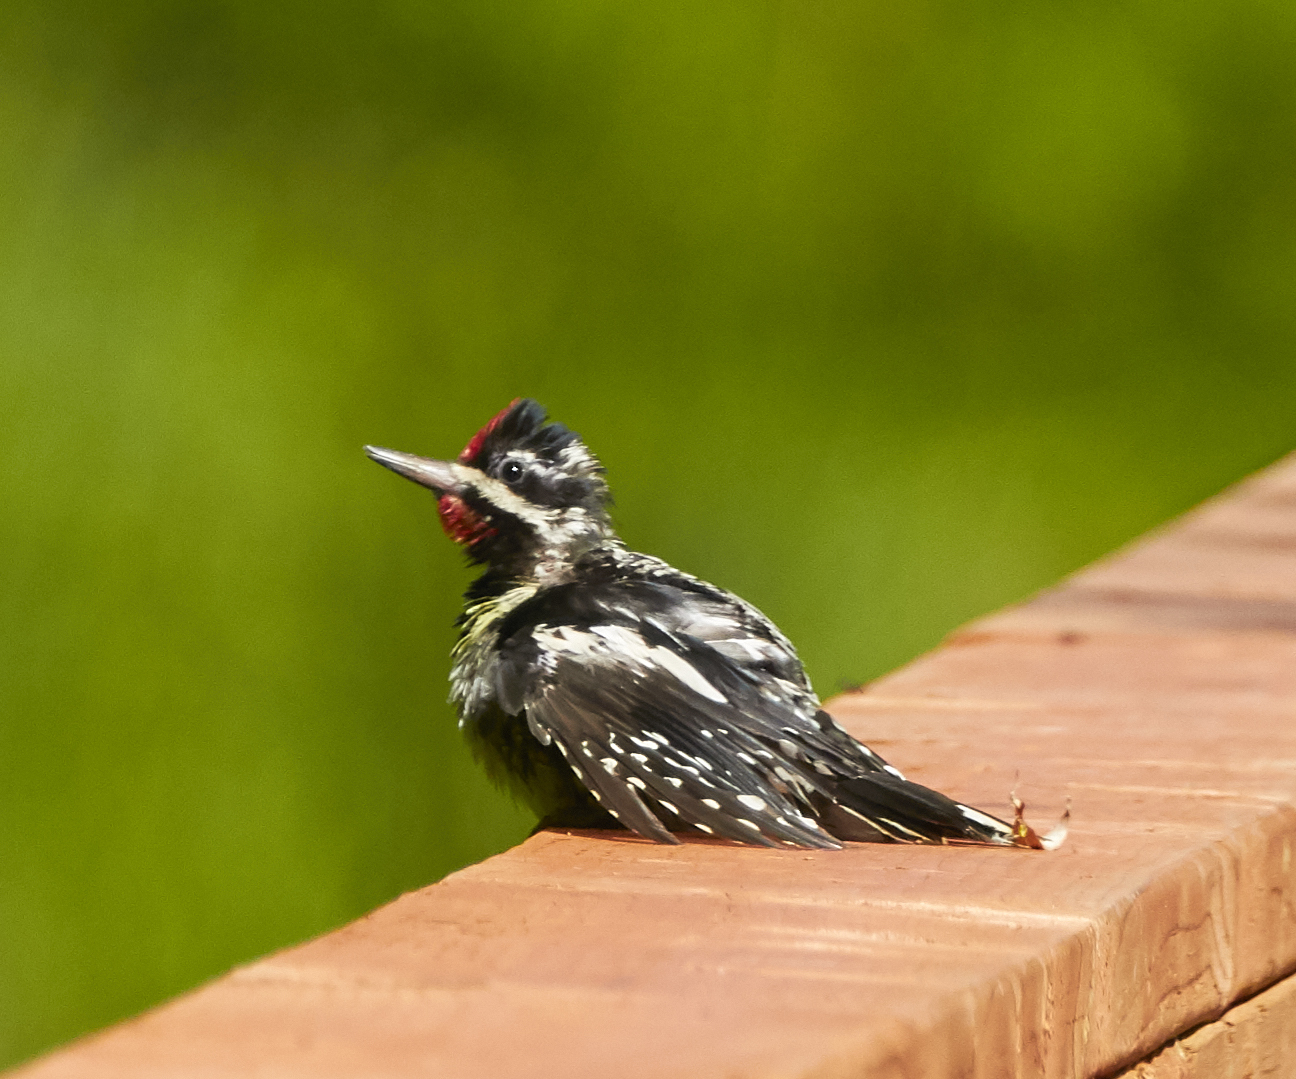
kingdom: Animalia
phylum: Chordata
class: Aves
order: Piciformes
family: Picidae
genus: Sphyrapicus
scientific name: Sphyrapicus varius
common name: Yellow-bellied sapsucker
